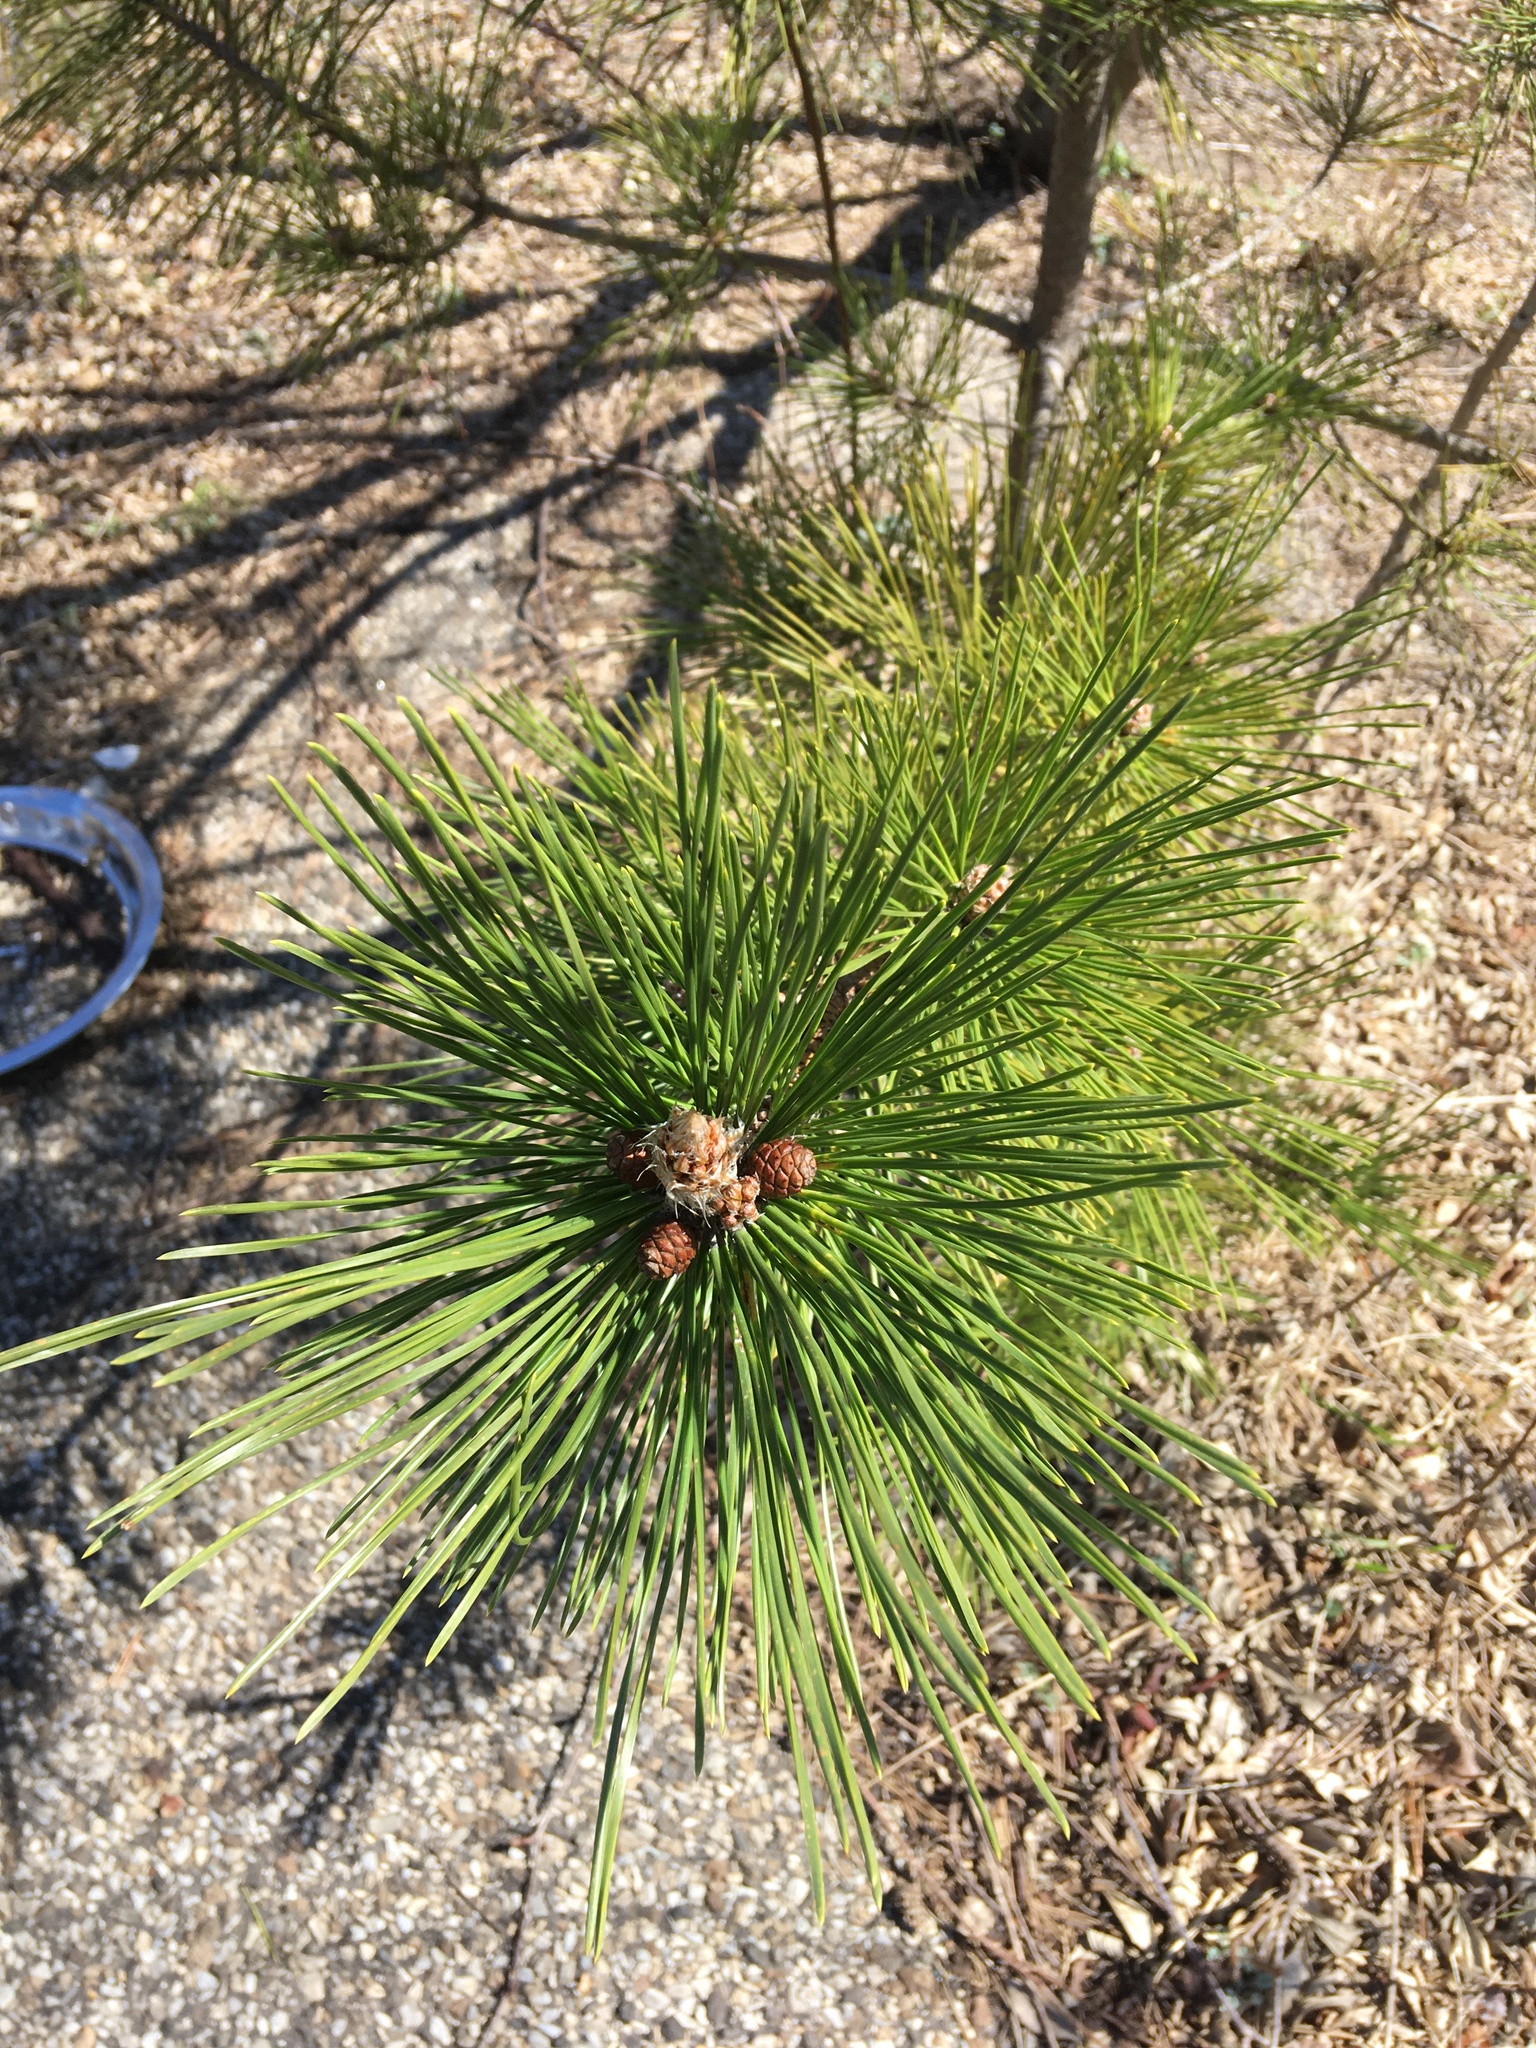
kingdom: Plantae
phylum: Tracheophyta
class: Pinopsida
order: Pinales
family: Pinaceae
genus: Pinus
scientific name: Pinus resinosa
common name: Norway pine
